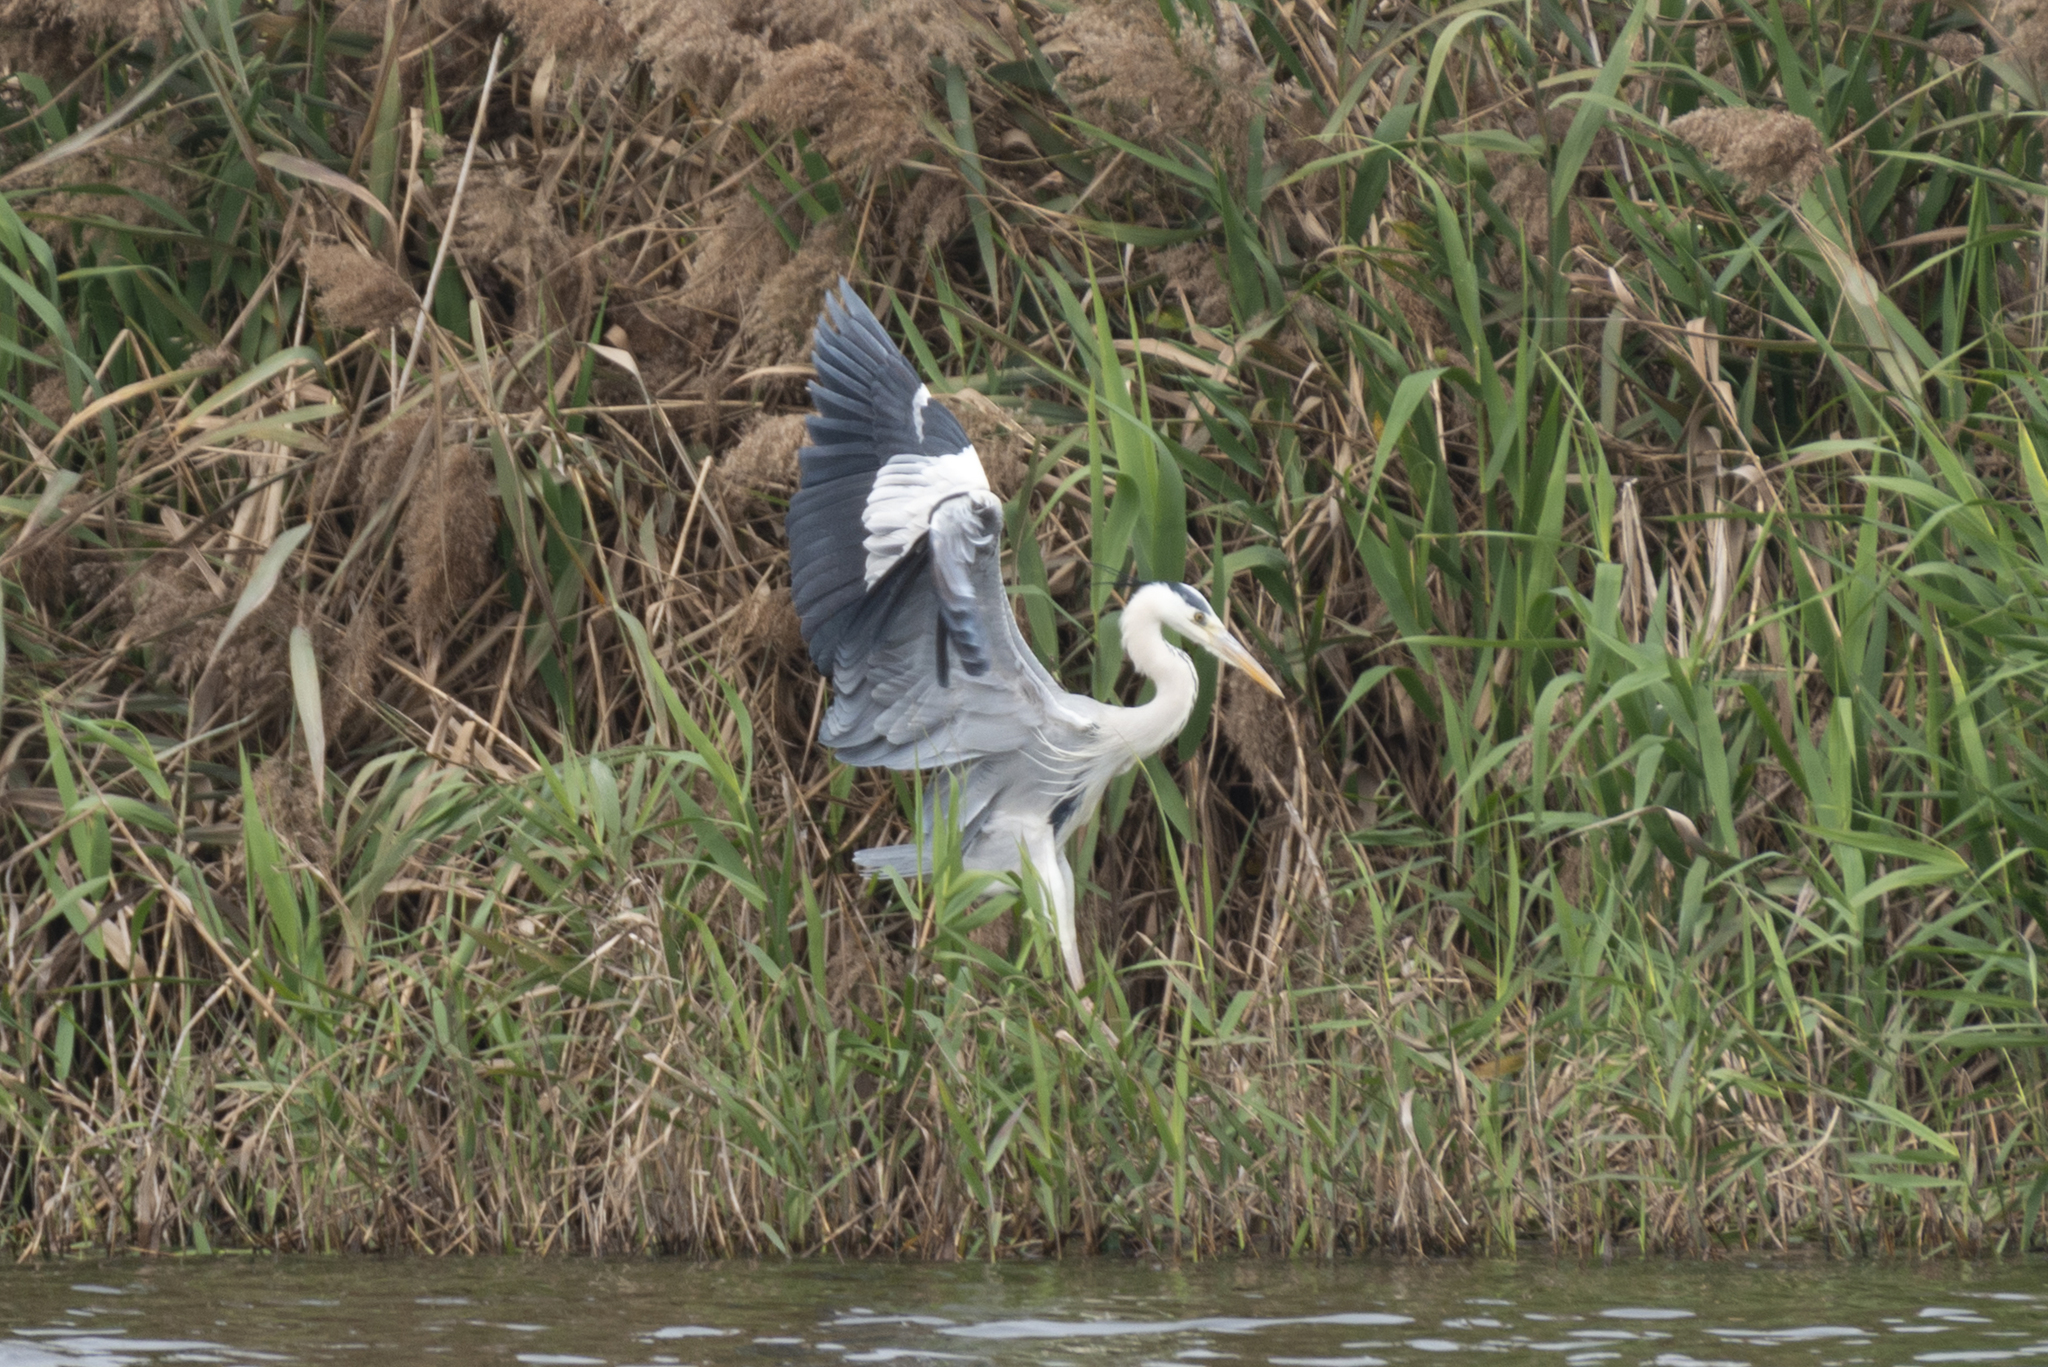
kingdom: Animalia
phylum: Chordata
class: Aves
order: Pelecaniformes
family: Ardeidae
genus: Ardea
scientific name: Ardea cinerea
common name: Grey heron
